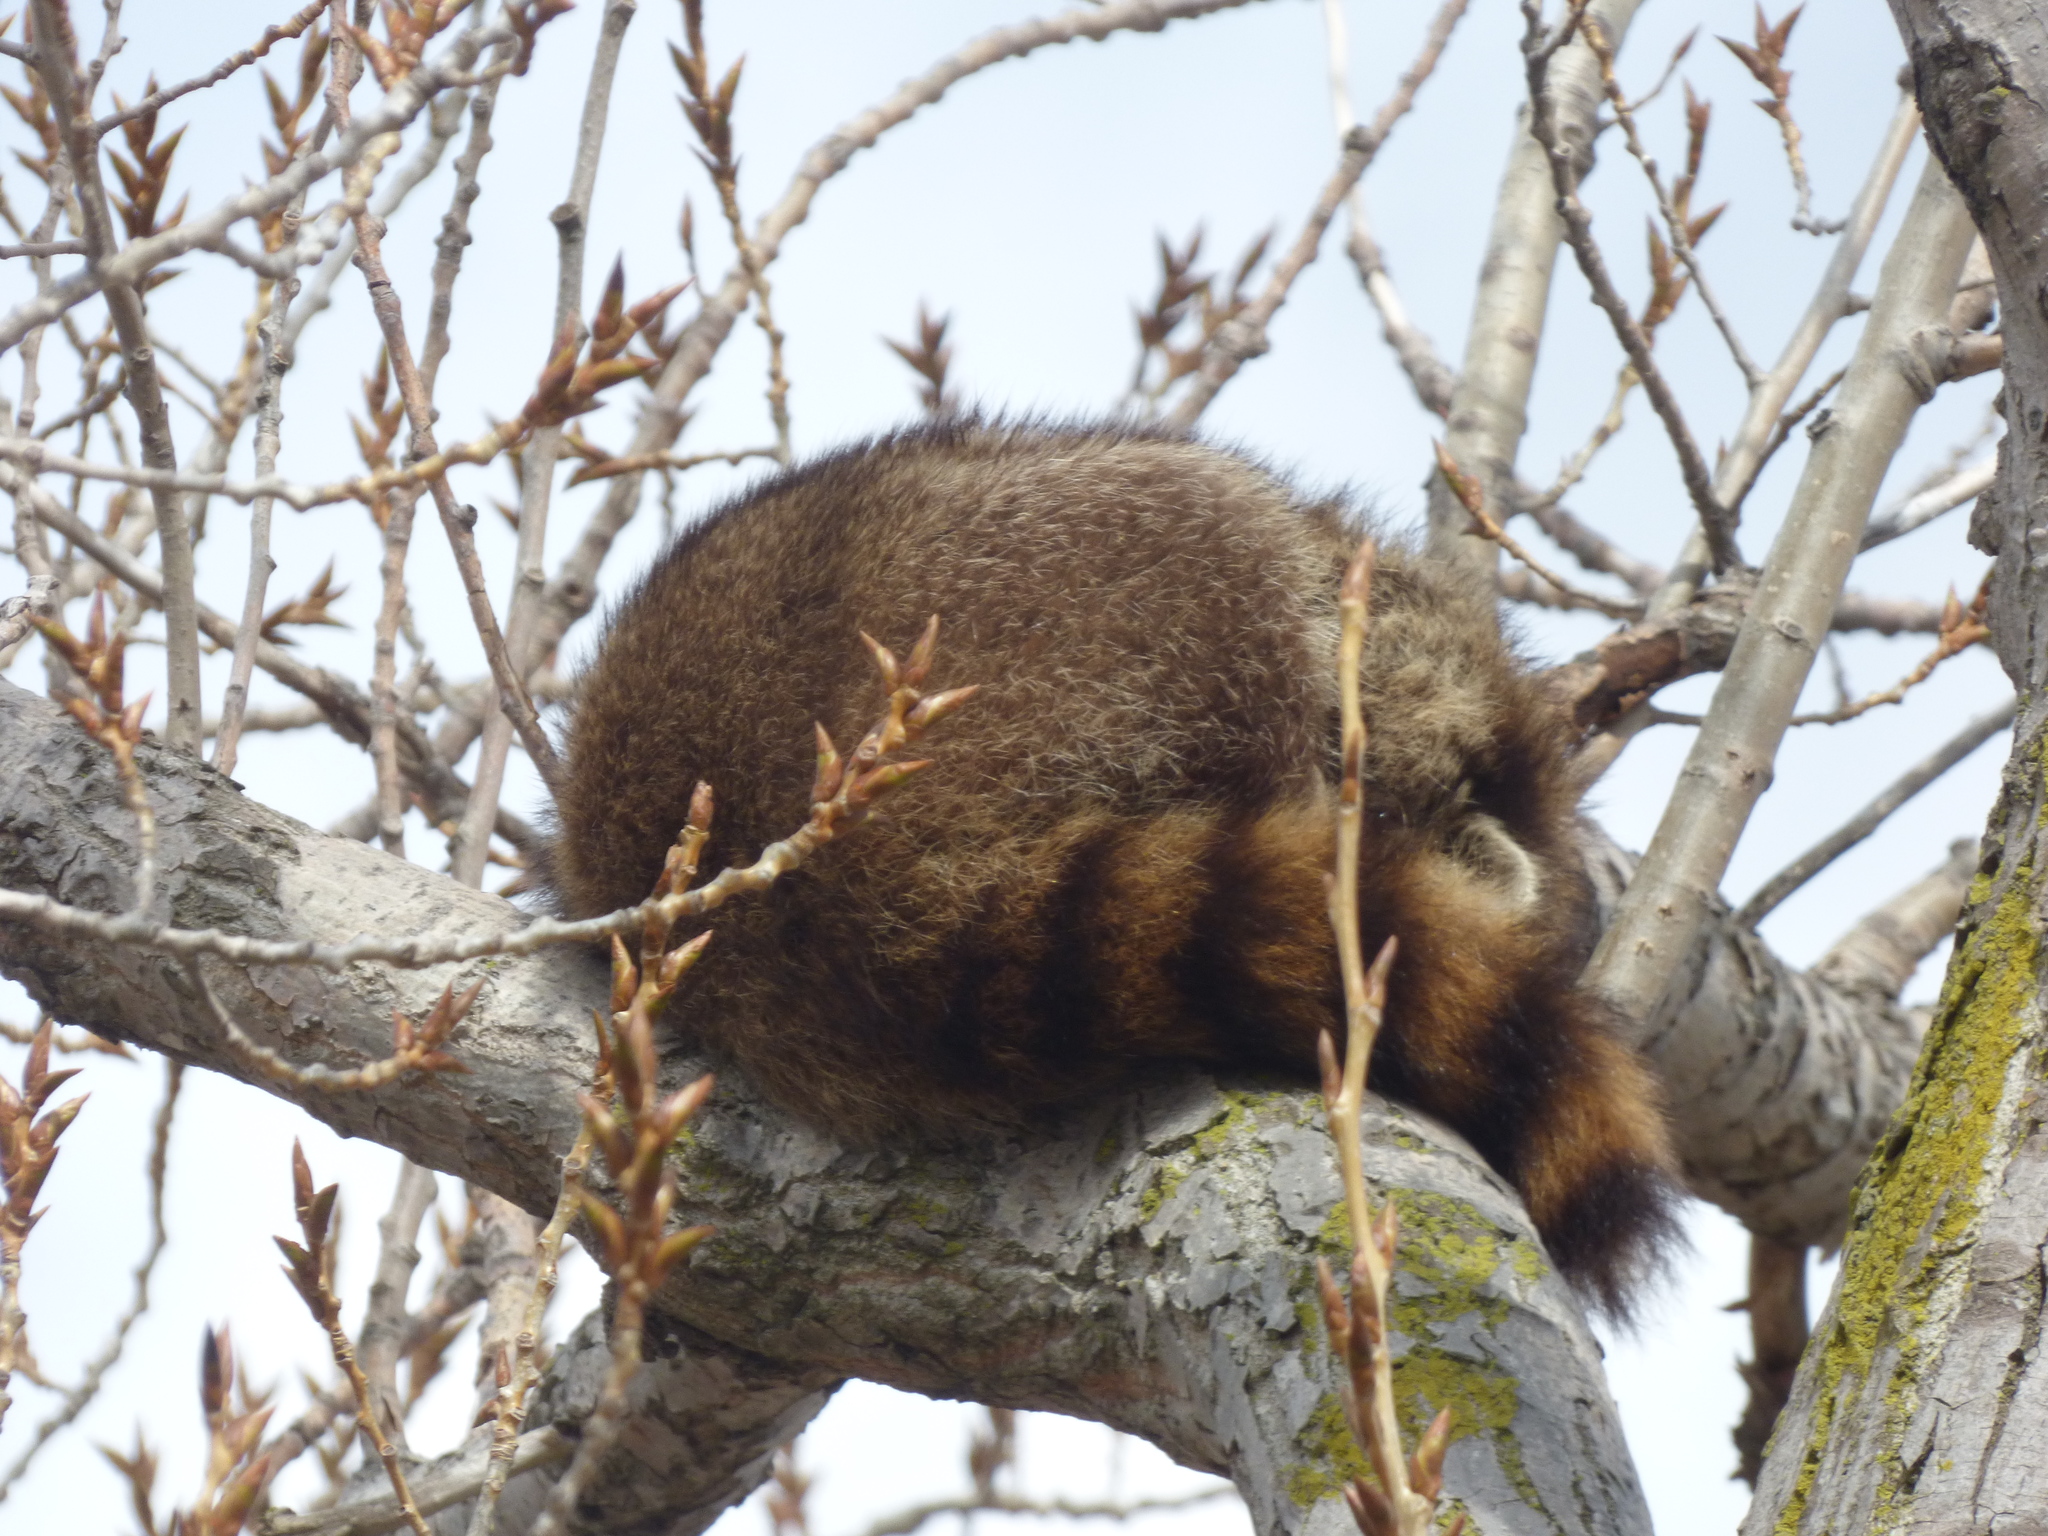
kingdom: Animalia
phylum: Chordata
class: Mammalia
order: Carnivora
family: Procyonidae
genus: Procyon
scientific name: Procyon lotor
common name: Raccoon
